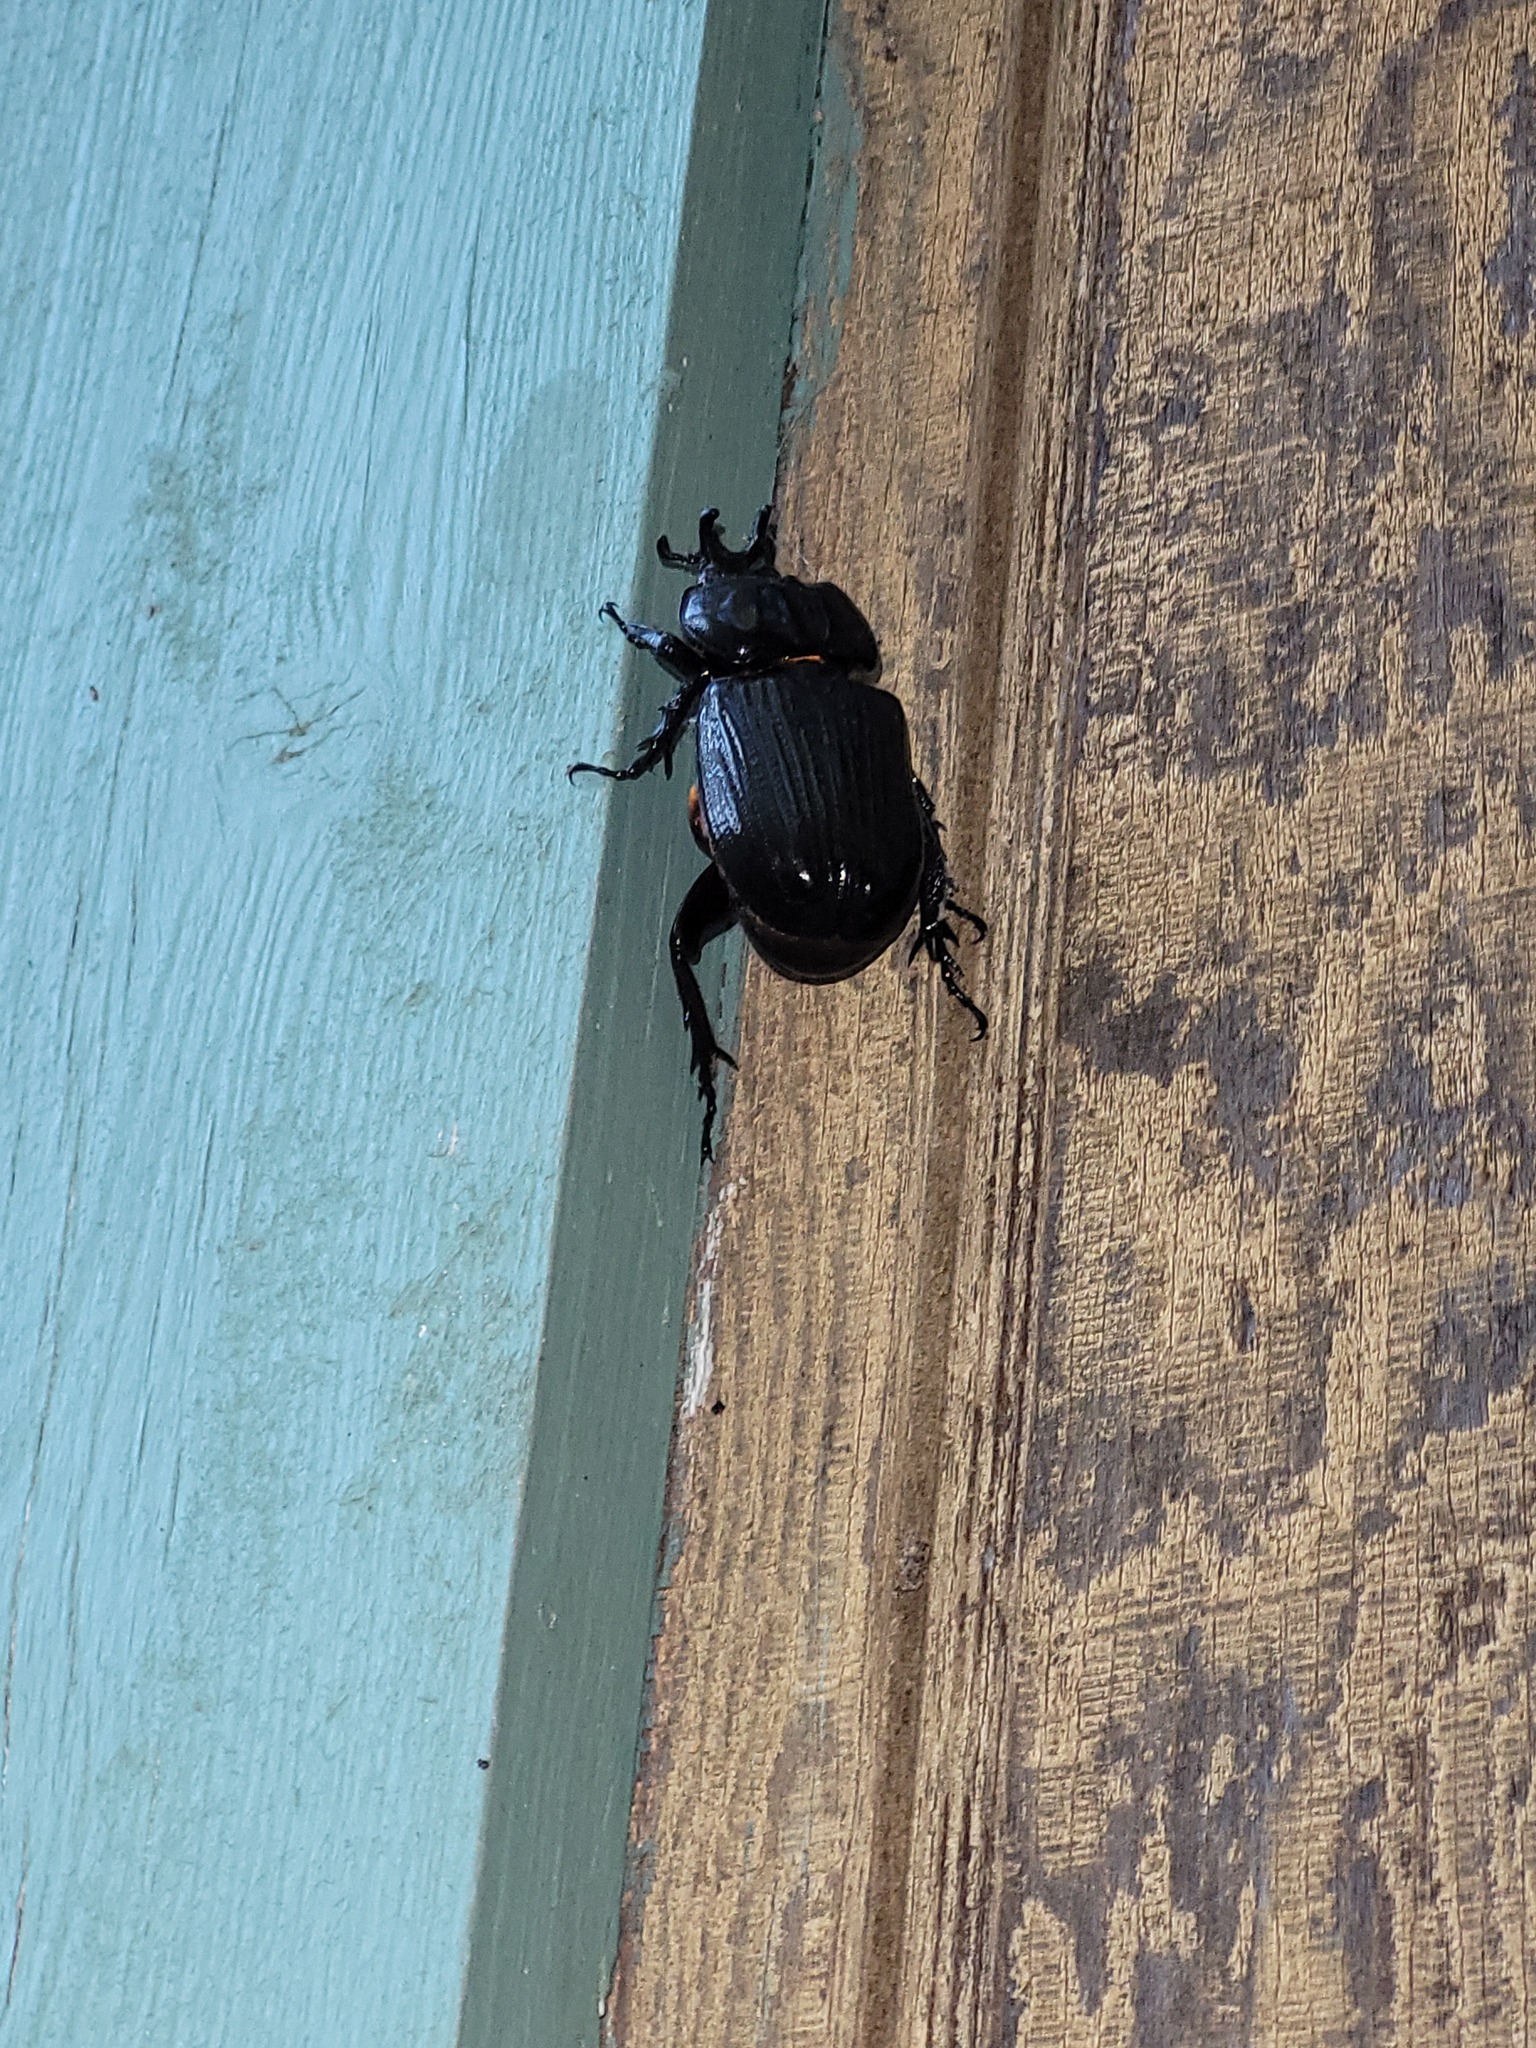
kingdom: Animalia
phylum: Arthropoda
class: Insecta
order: Coleoptera
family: Scarabaeidae
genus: Phileurus
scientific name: Phileurus truncatus
